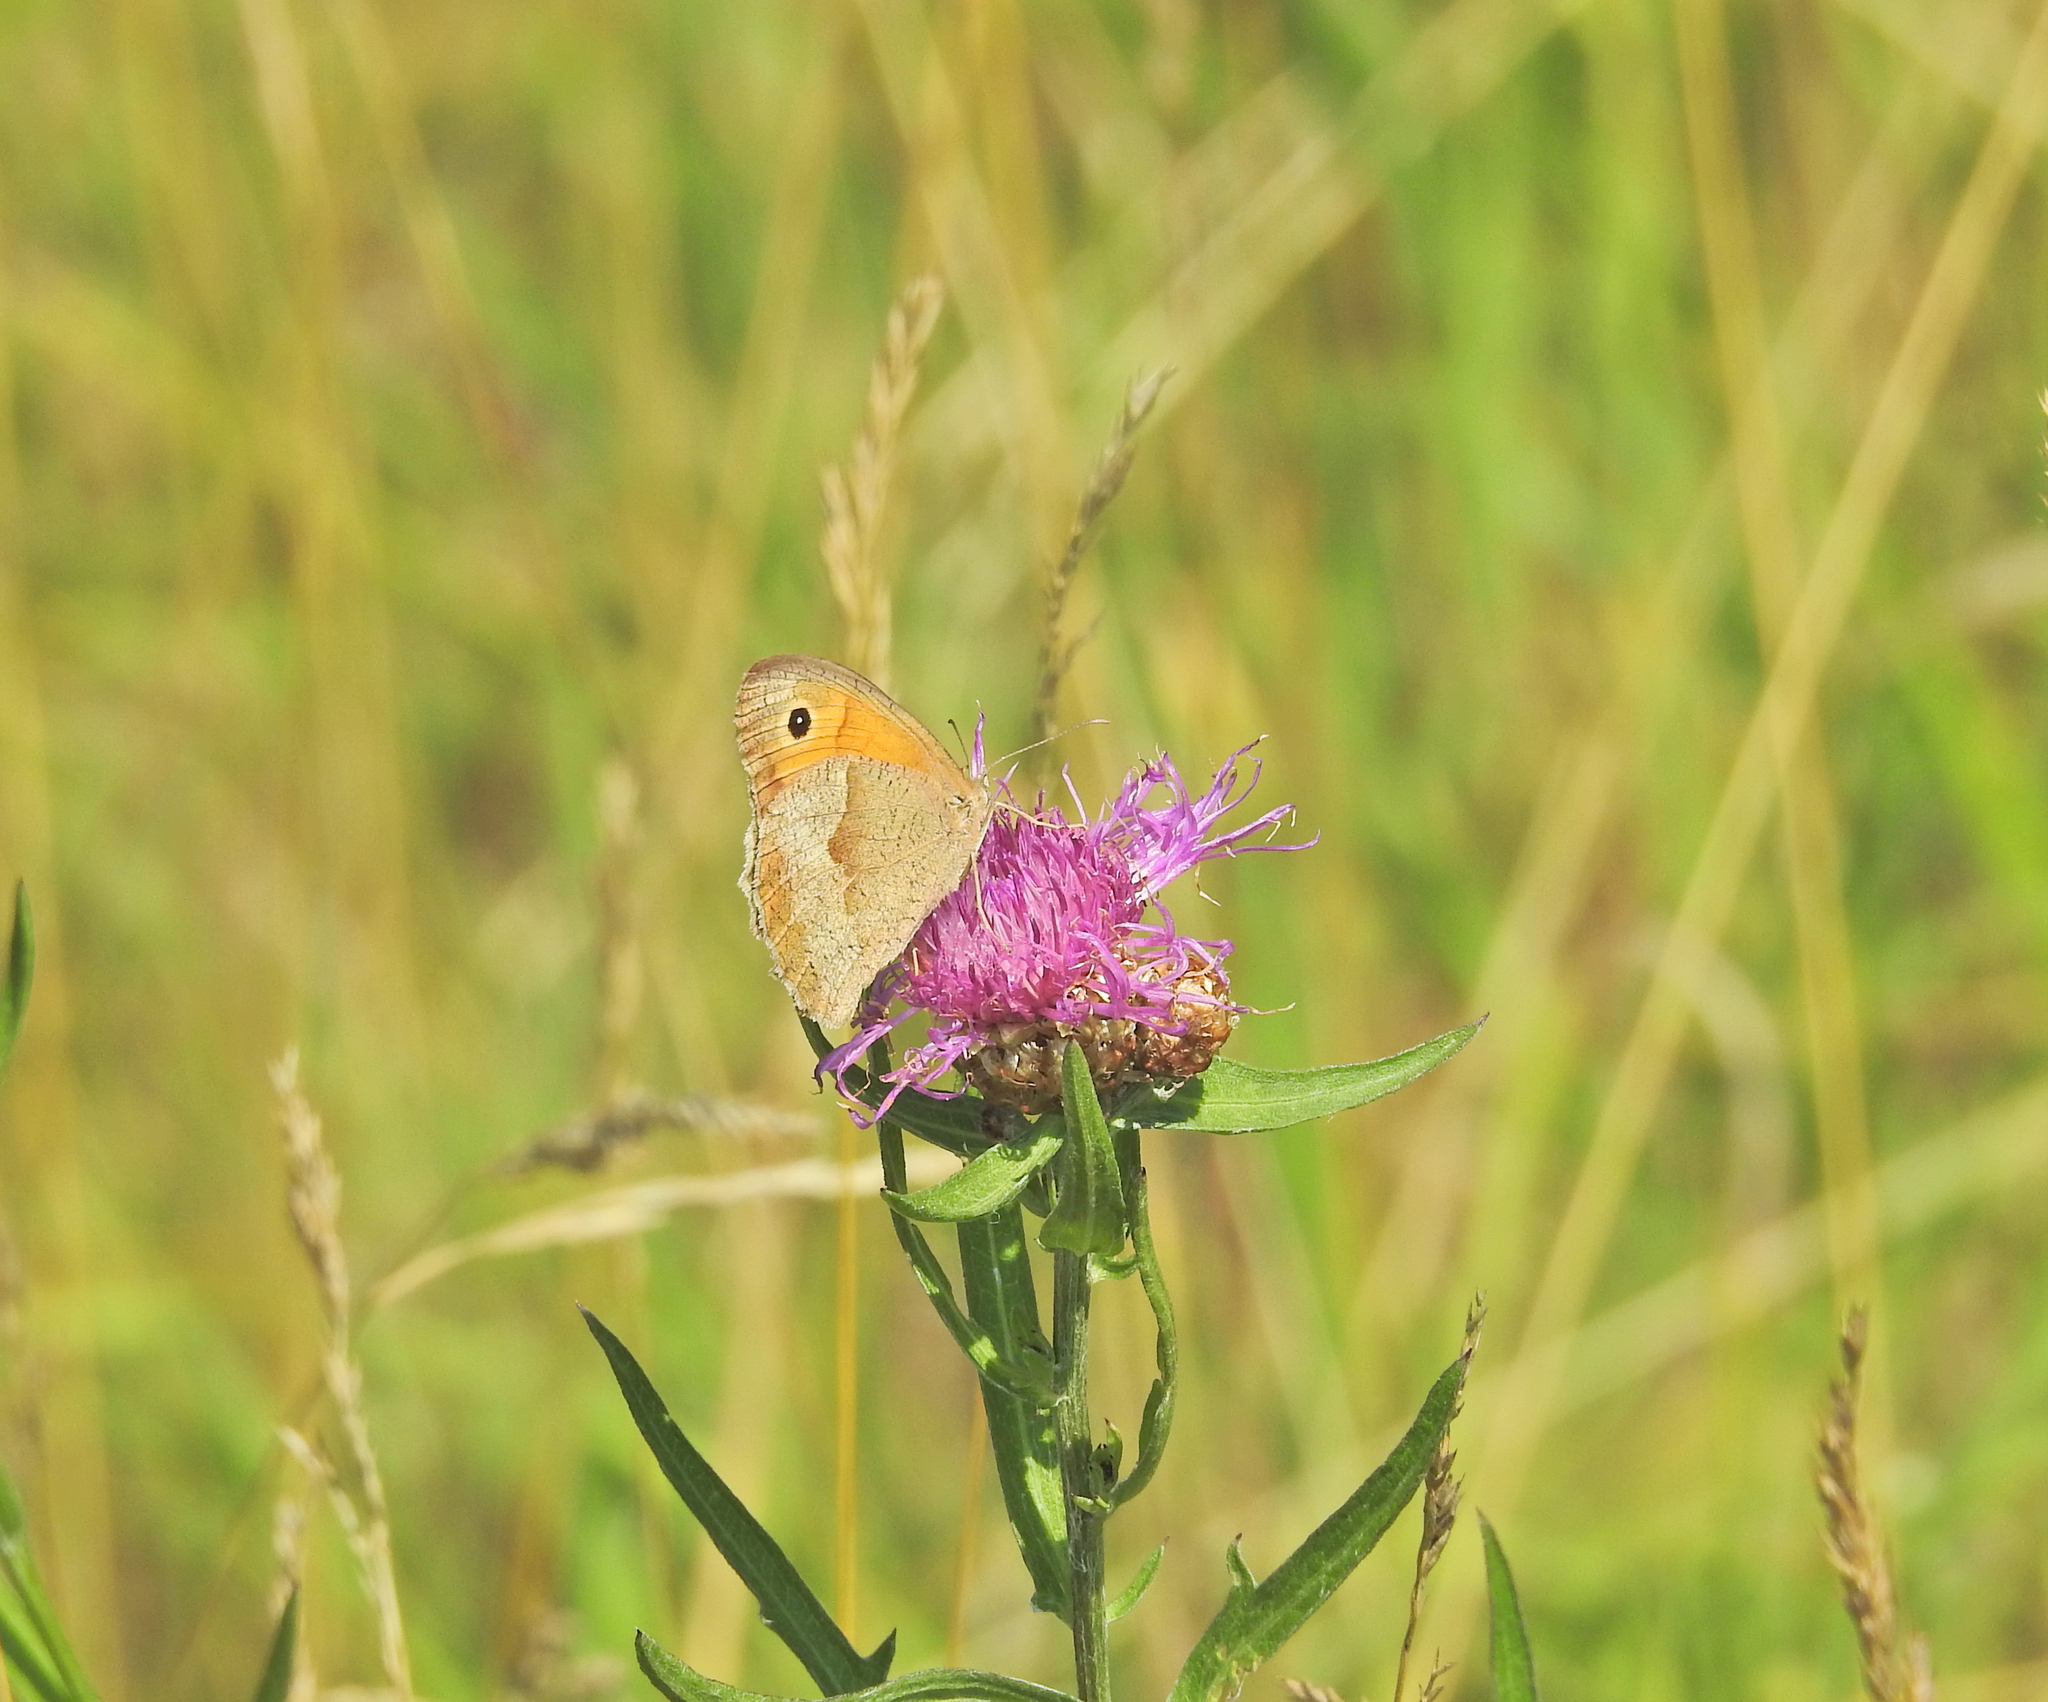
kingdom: Animalia
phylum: Arthropoda
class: Insecta
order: Lepidoptera
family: Nymphalidae
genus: Maniola
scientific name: Maniola jurtina
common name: Meadow brown
